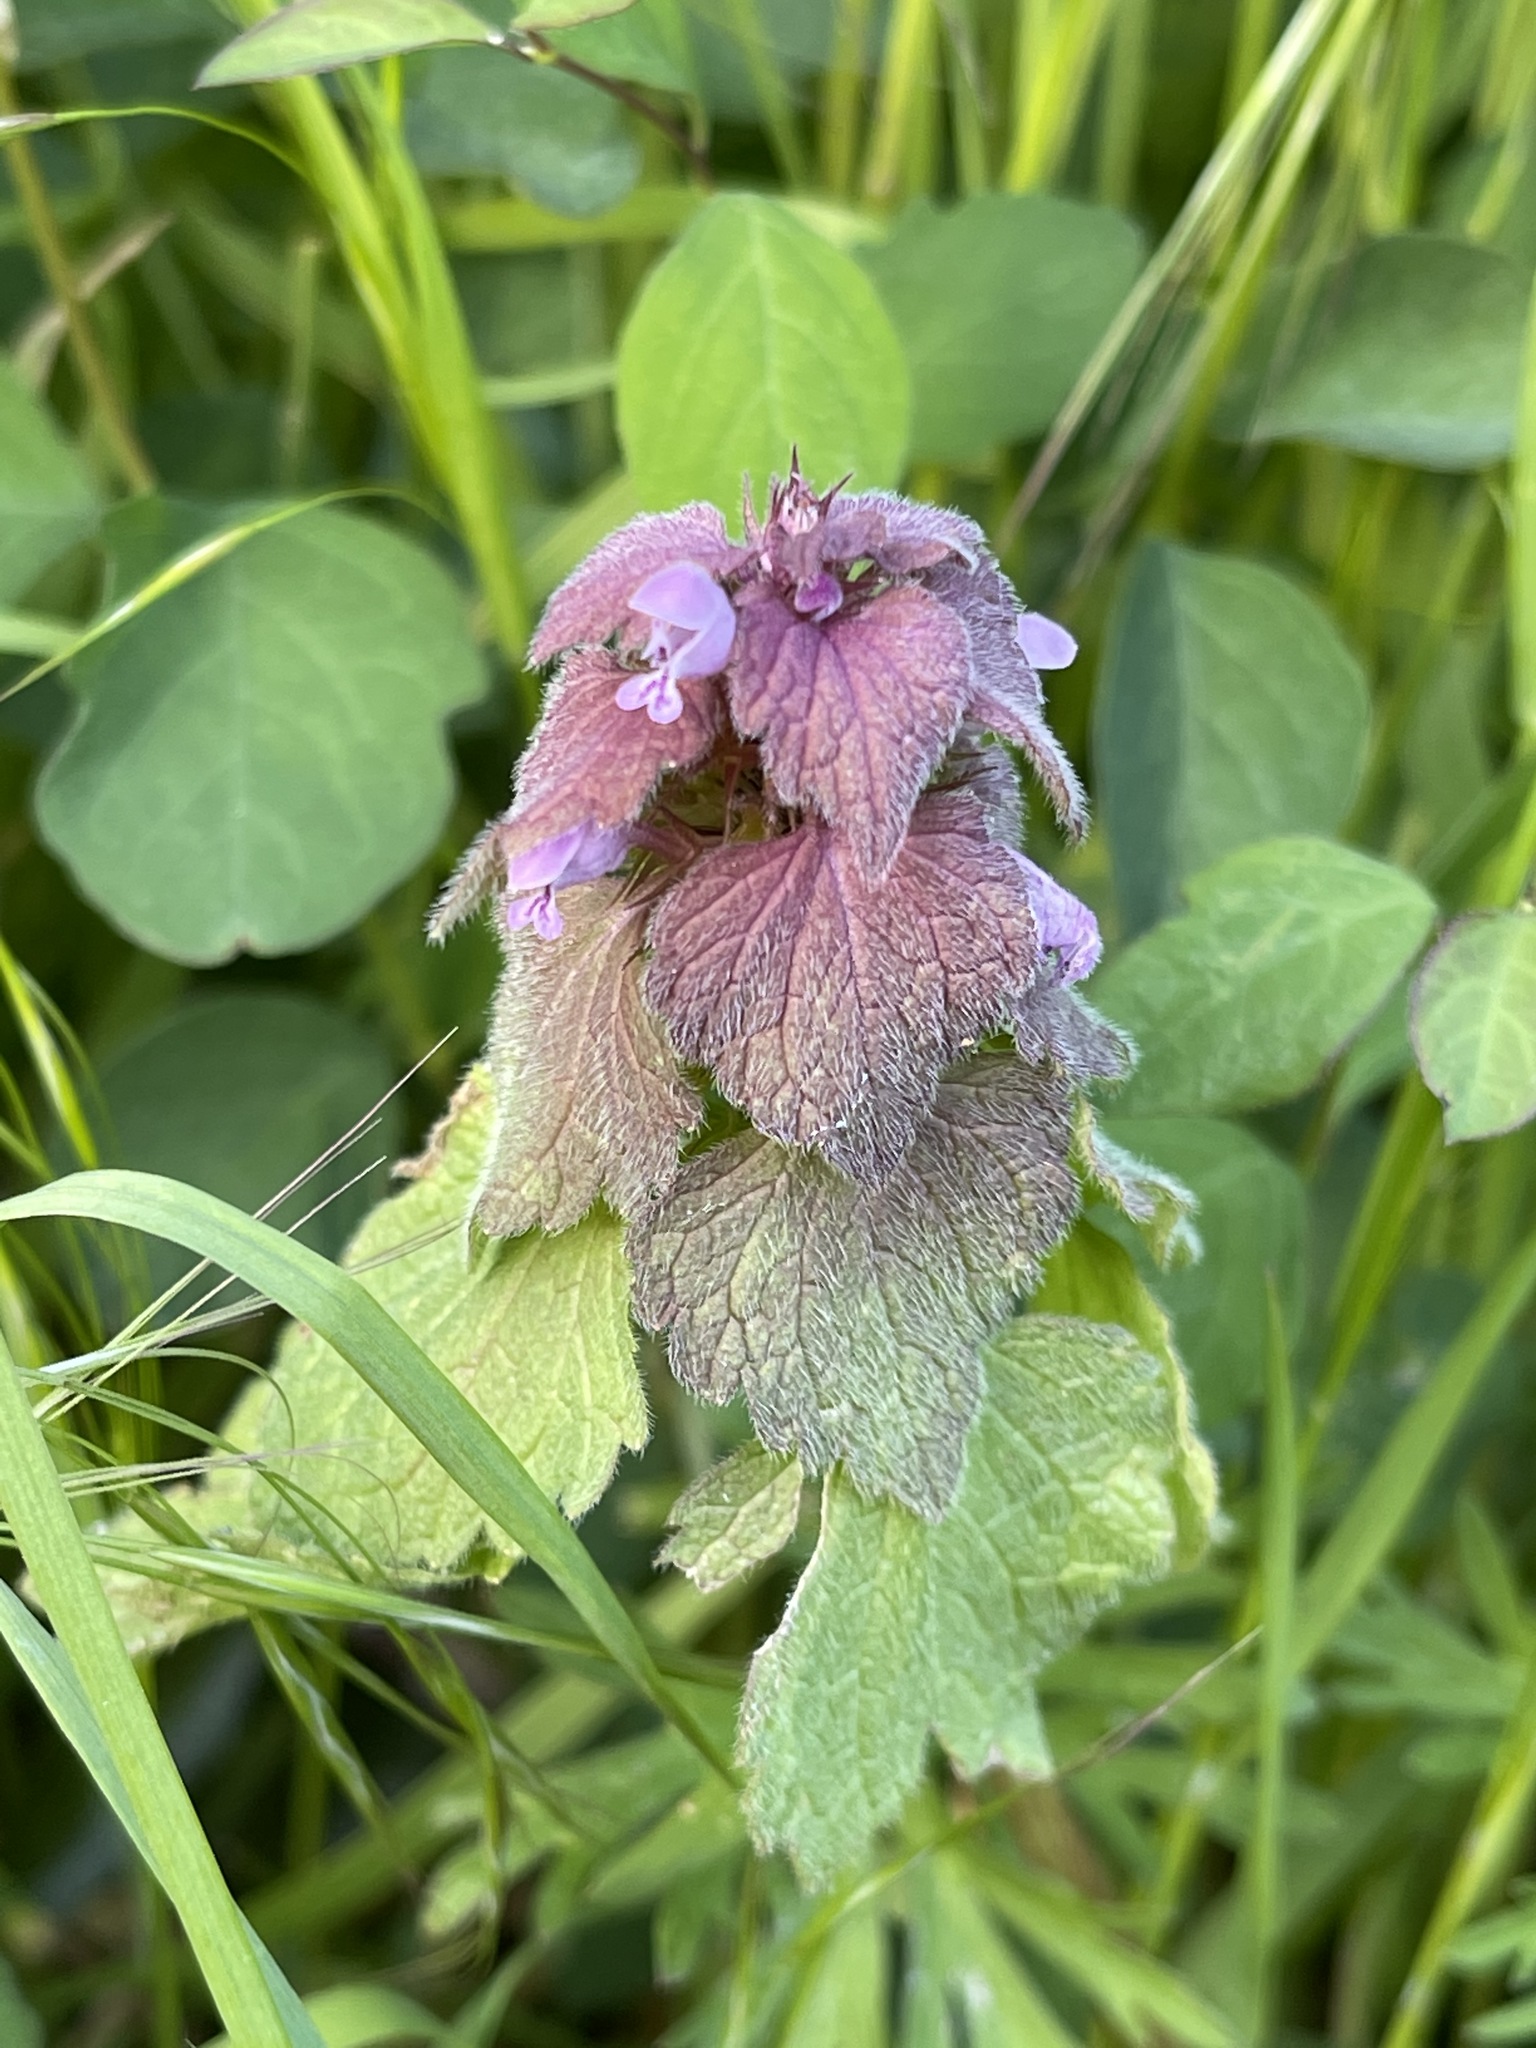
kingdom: Plantae
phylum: Tracheophyta
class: Magnoliopsida
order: Lamiales
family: Lamiaceae
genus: Lamium
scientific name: Lamium purpureum
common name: Red dead-nettle
